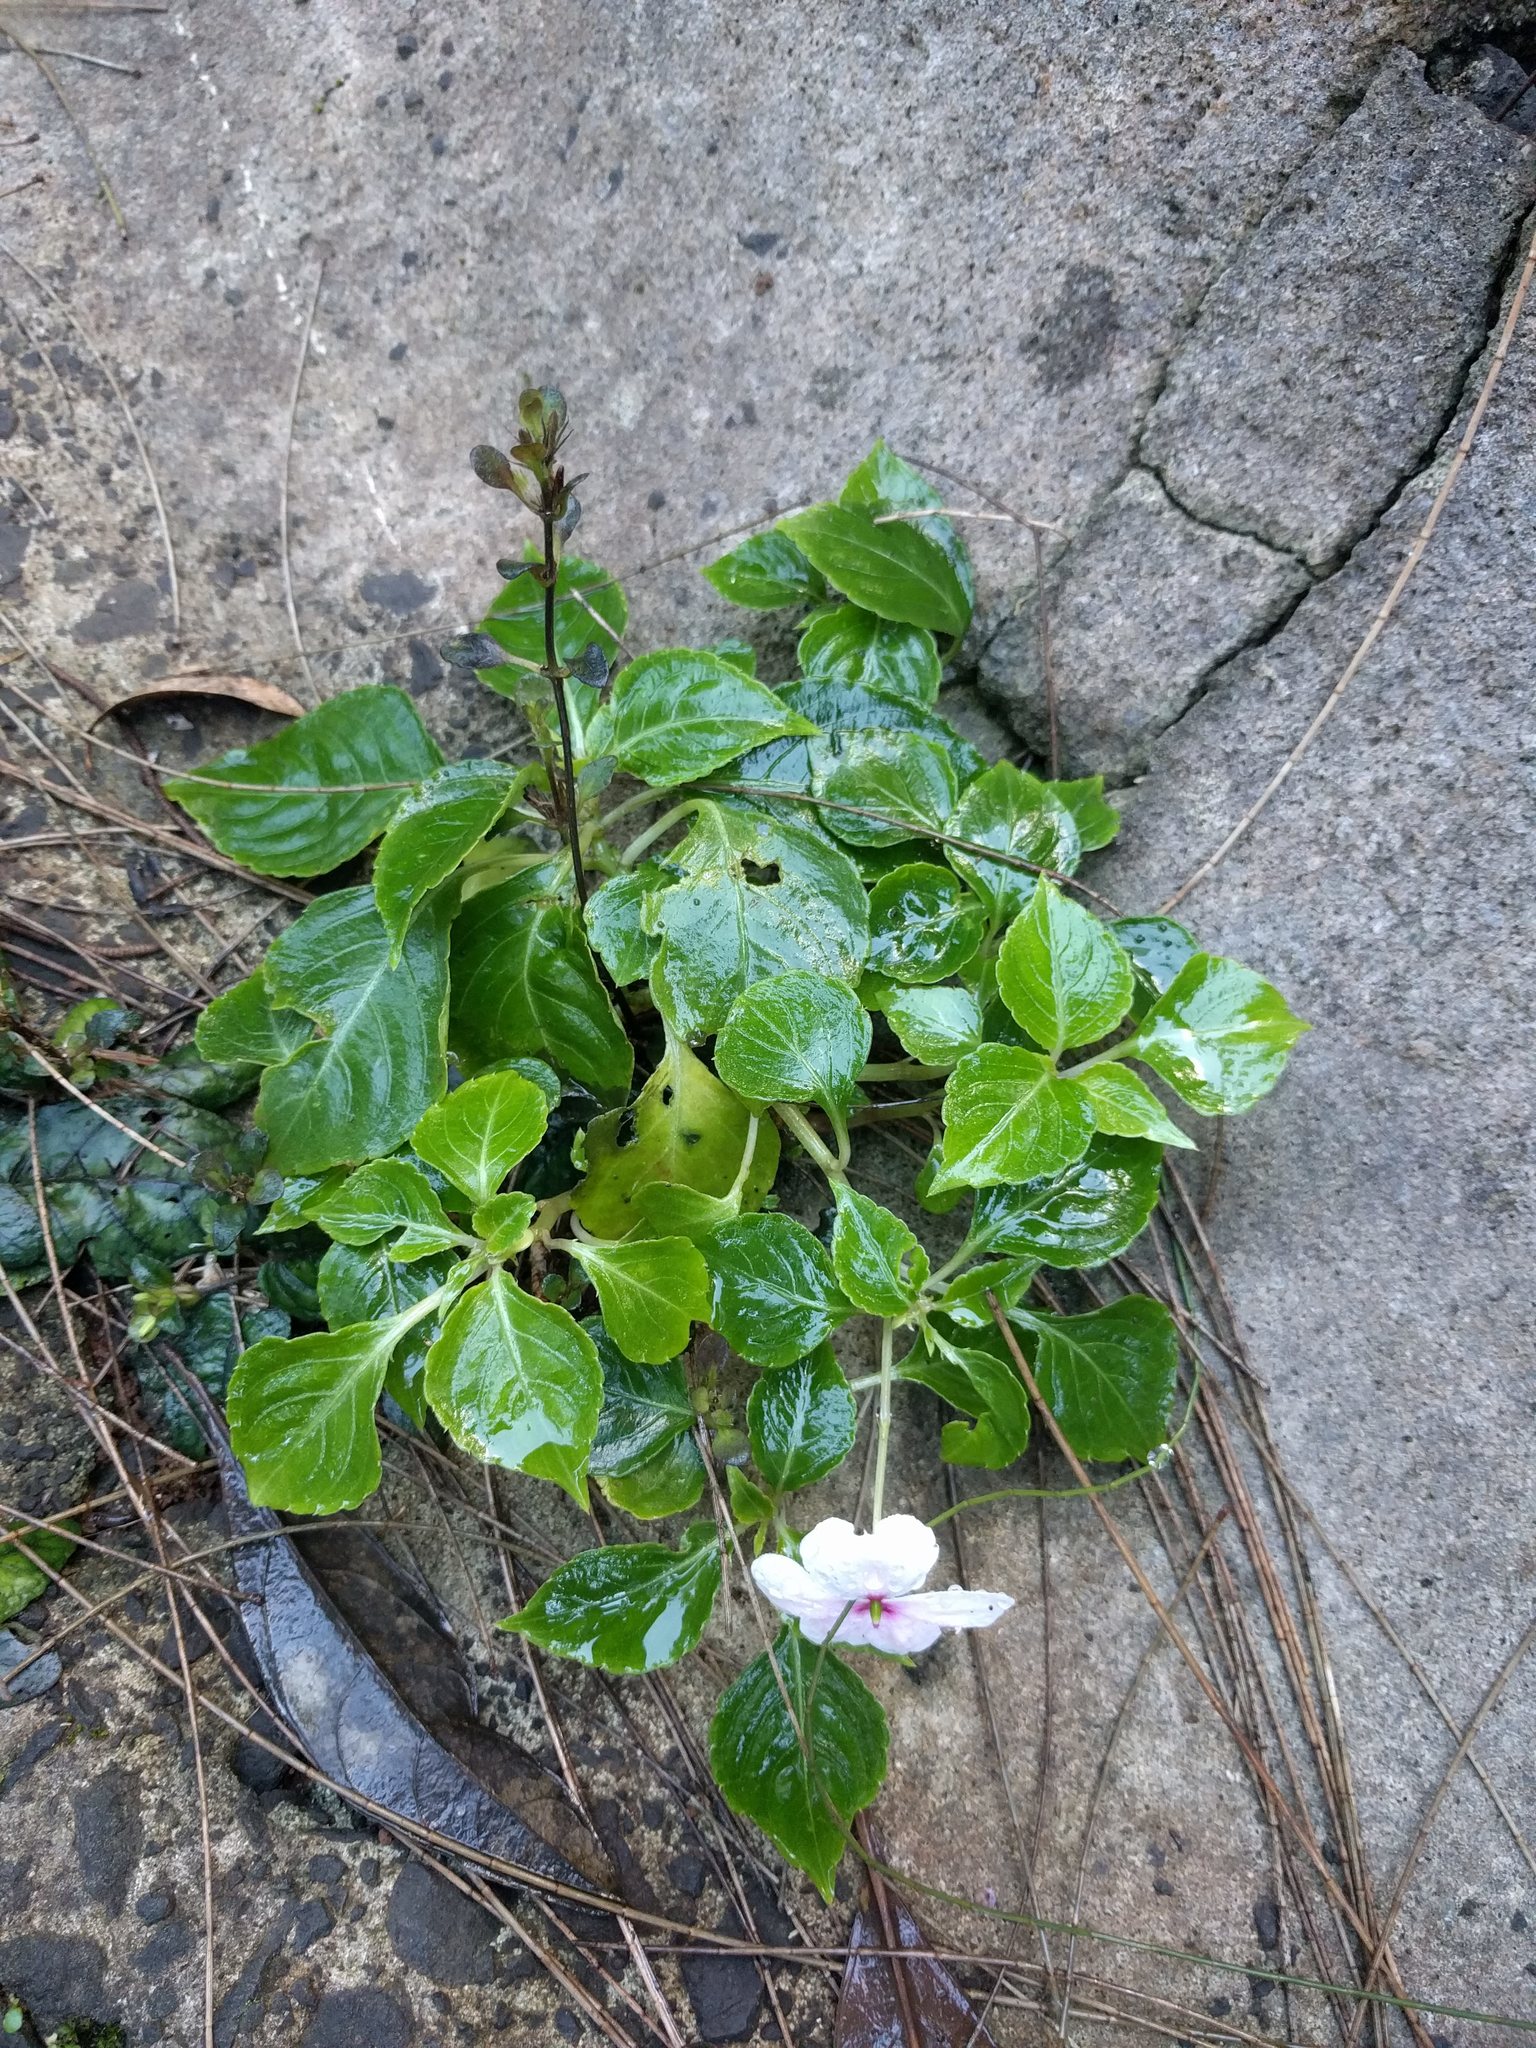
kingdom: Plantae
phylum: Tracheophyta
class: Magnoliopsida
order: Ericales
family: Balsaminaceae
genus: Impatiens
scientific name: Impatiens walleriana
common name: Buzzy lizzy
